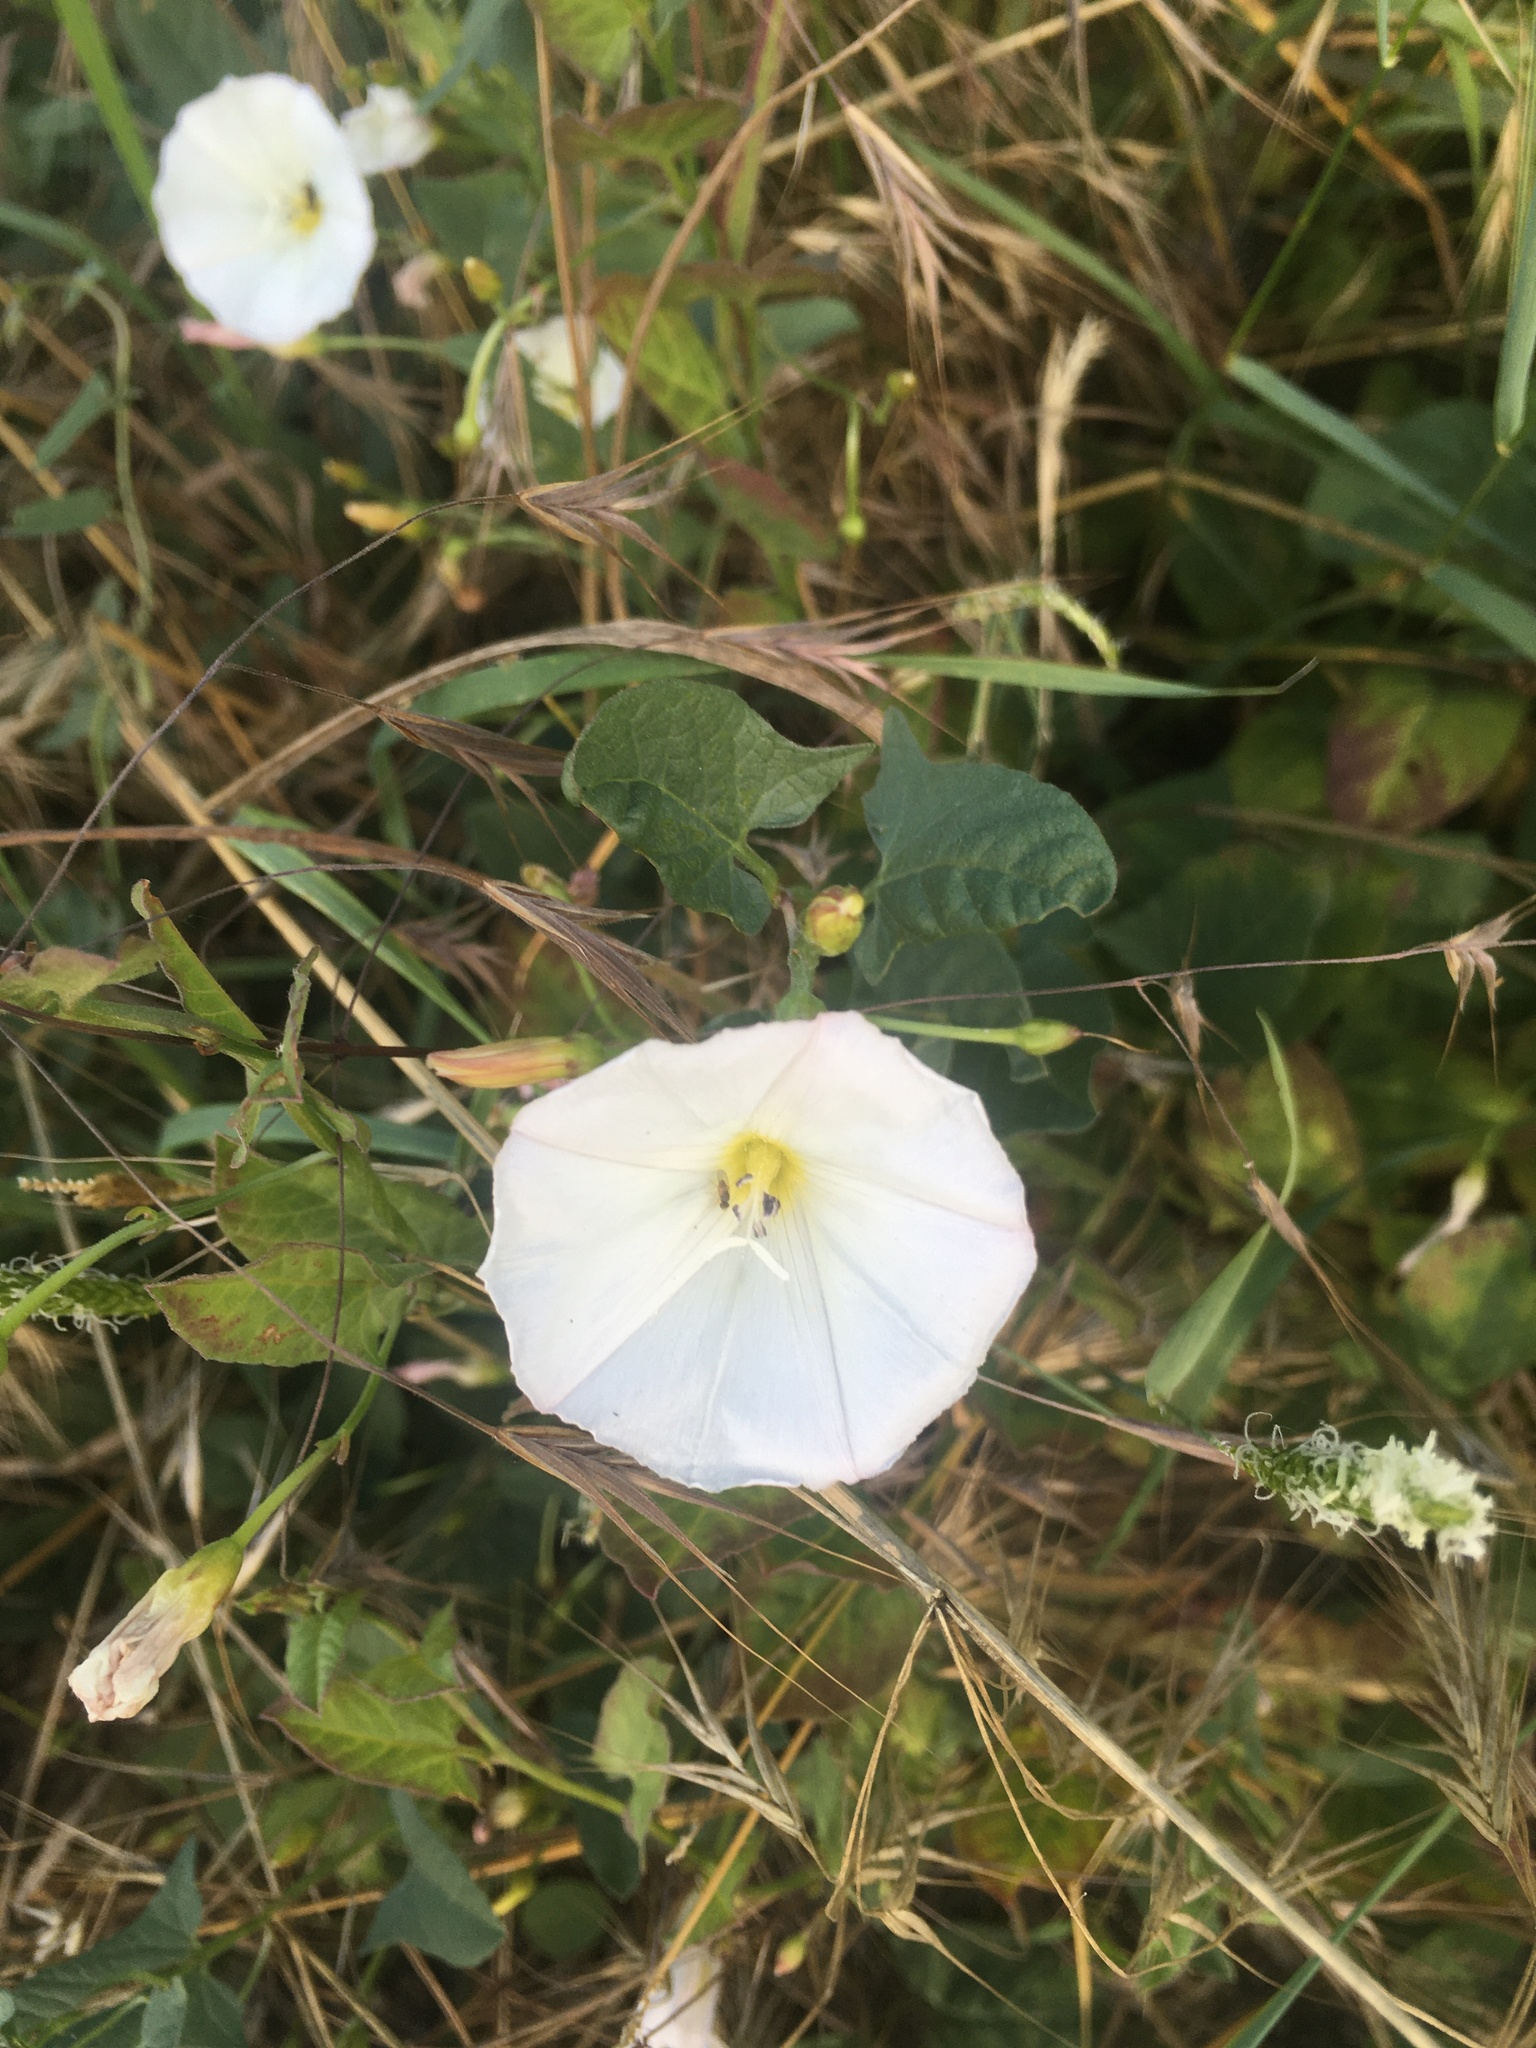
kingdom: Plantae
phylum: Tracheophyta
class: Magnoliopsida
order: Solanales
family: Convolvulaceae
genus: Convolvulus
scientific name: Convolvulus arvensis
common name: Field bindweed
